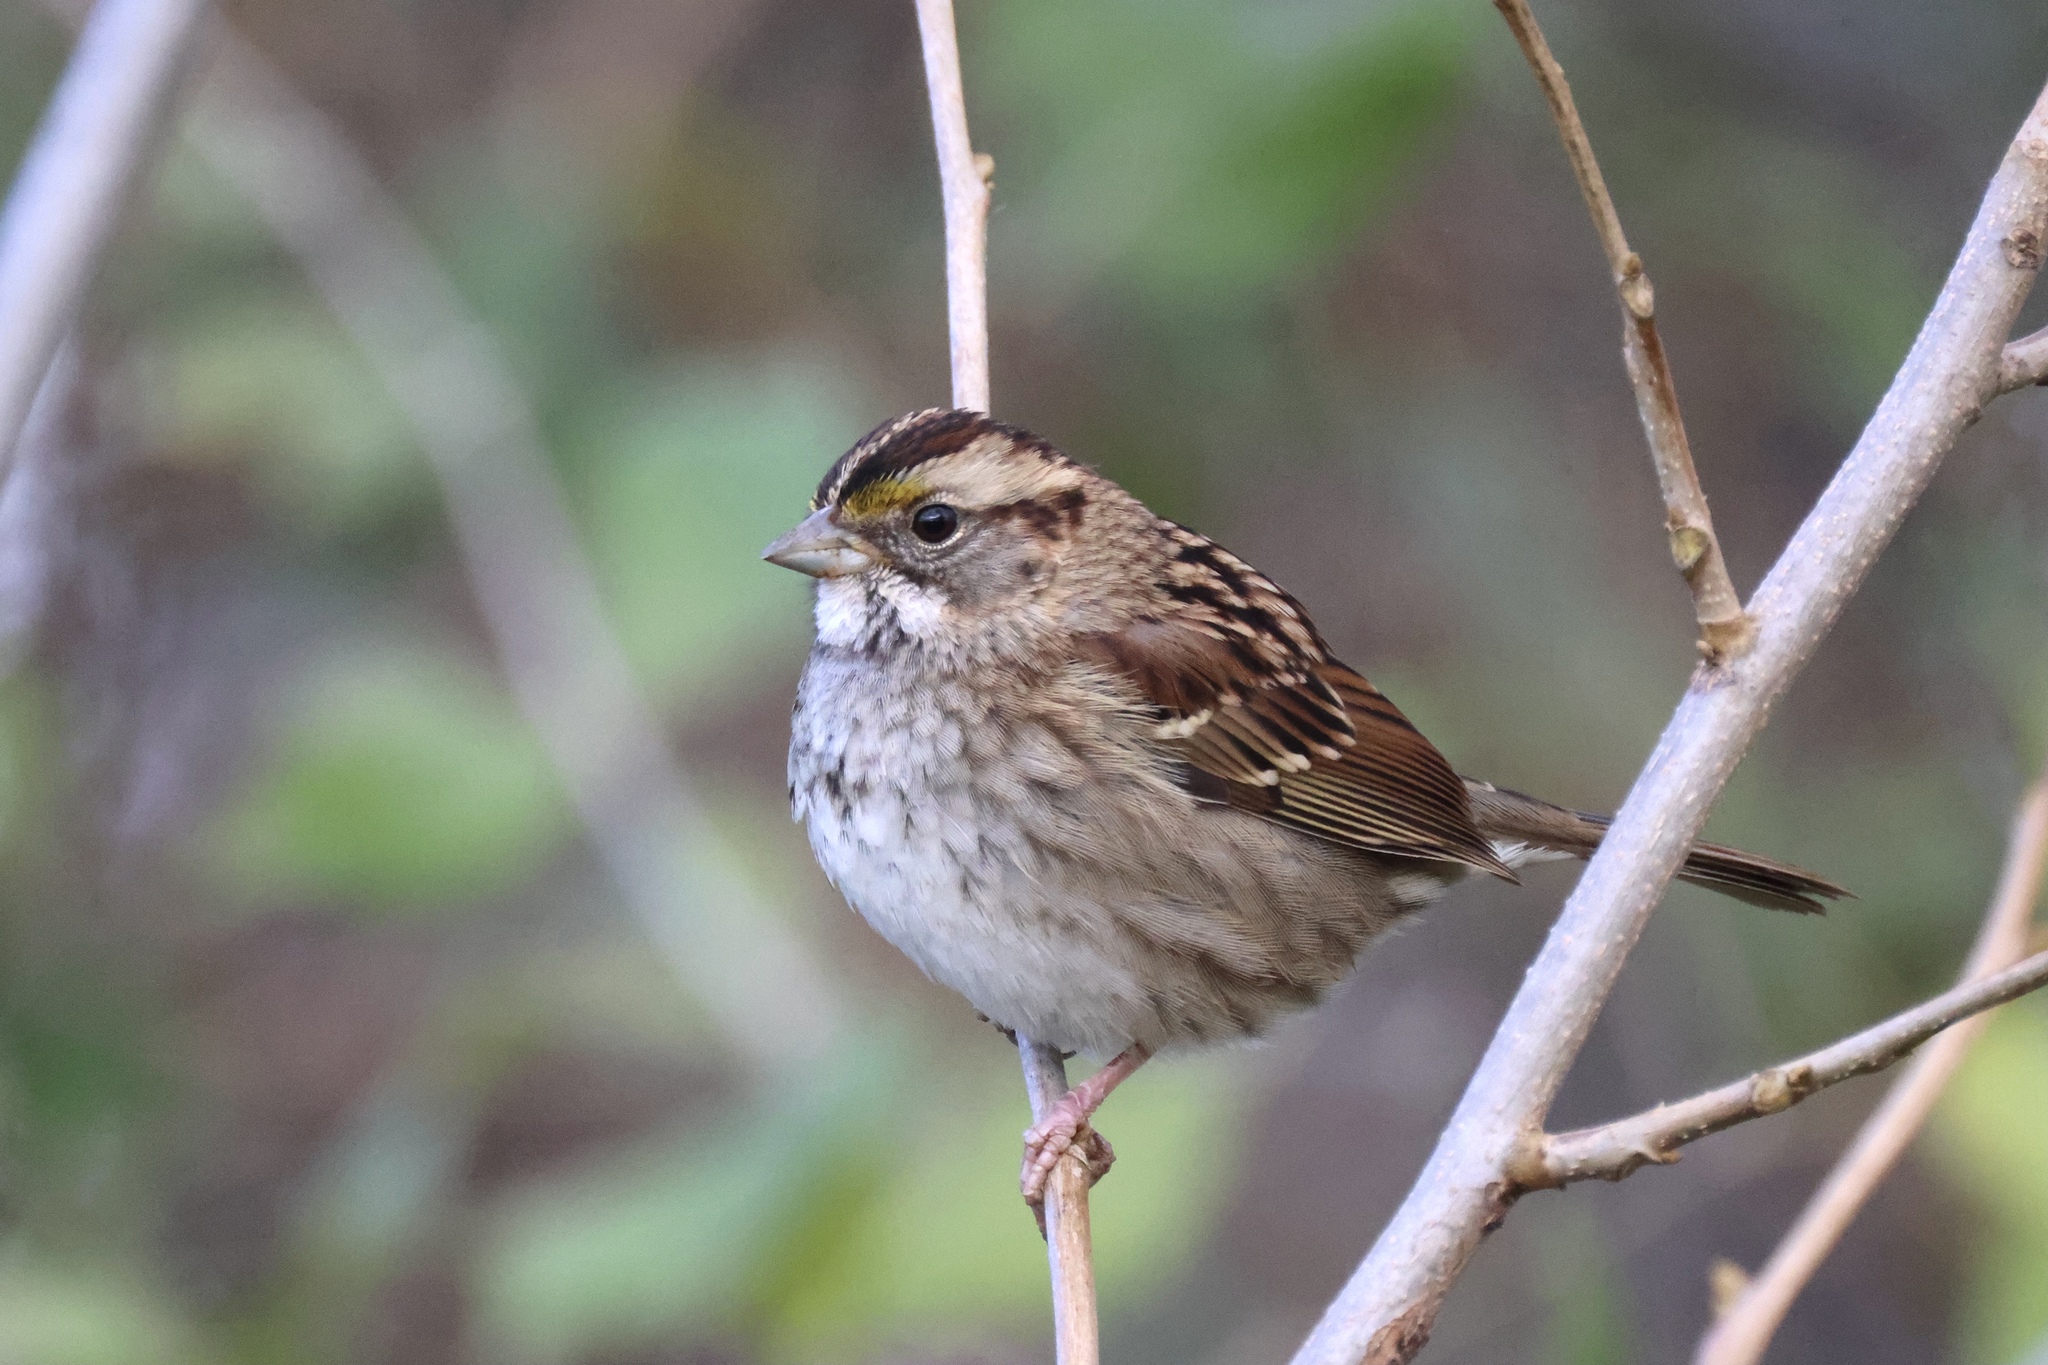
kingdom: Animalia
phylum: Chordata
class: Aves
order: Passeriformes
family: Passerellidae
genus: Zonotrichia
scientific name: Zonotrichia albicollis
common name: White-throated sparrow
